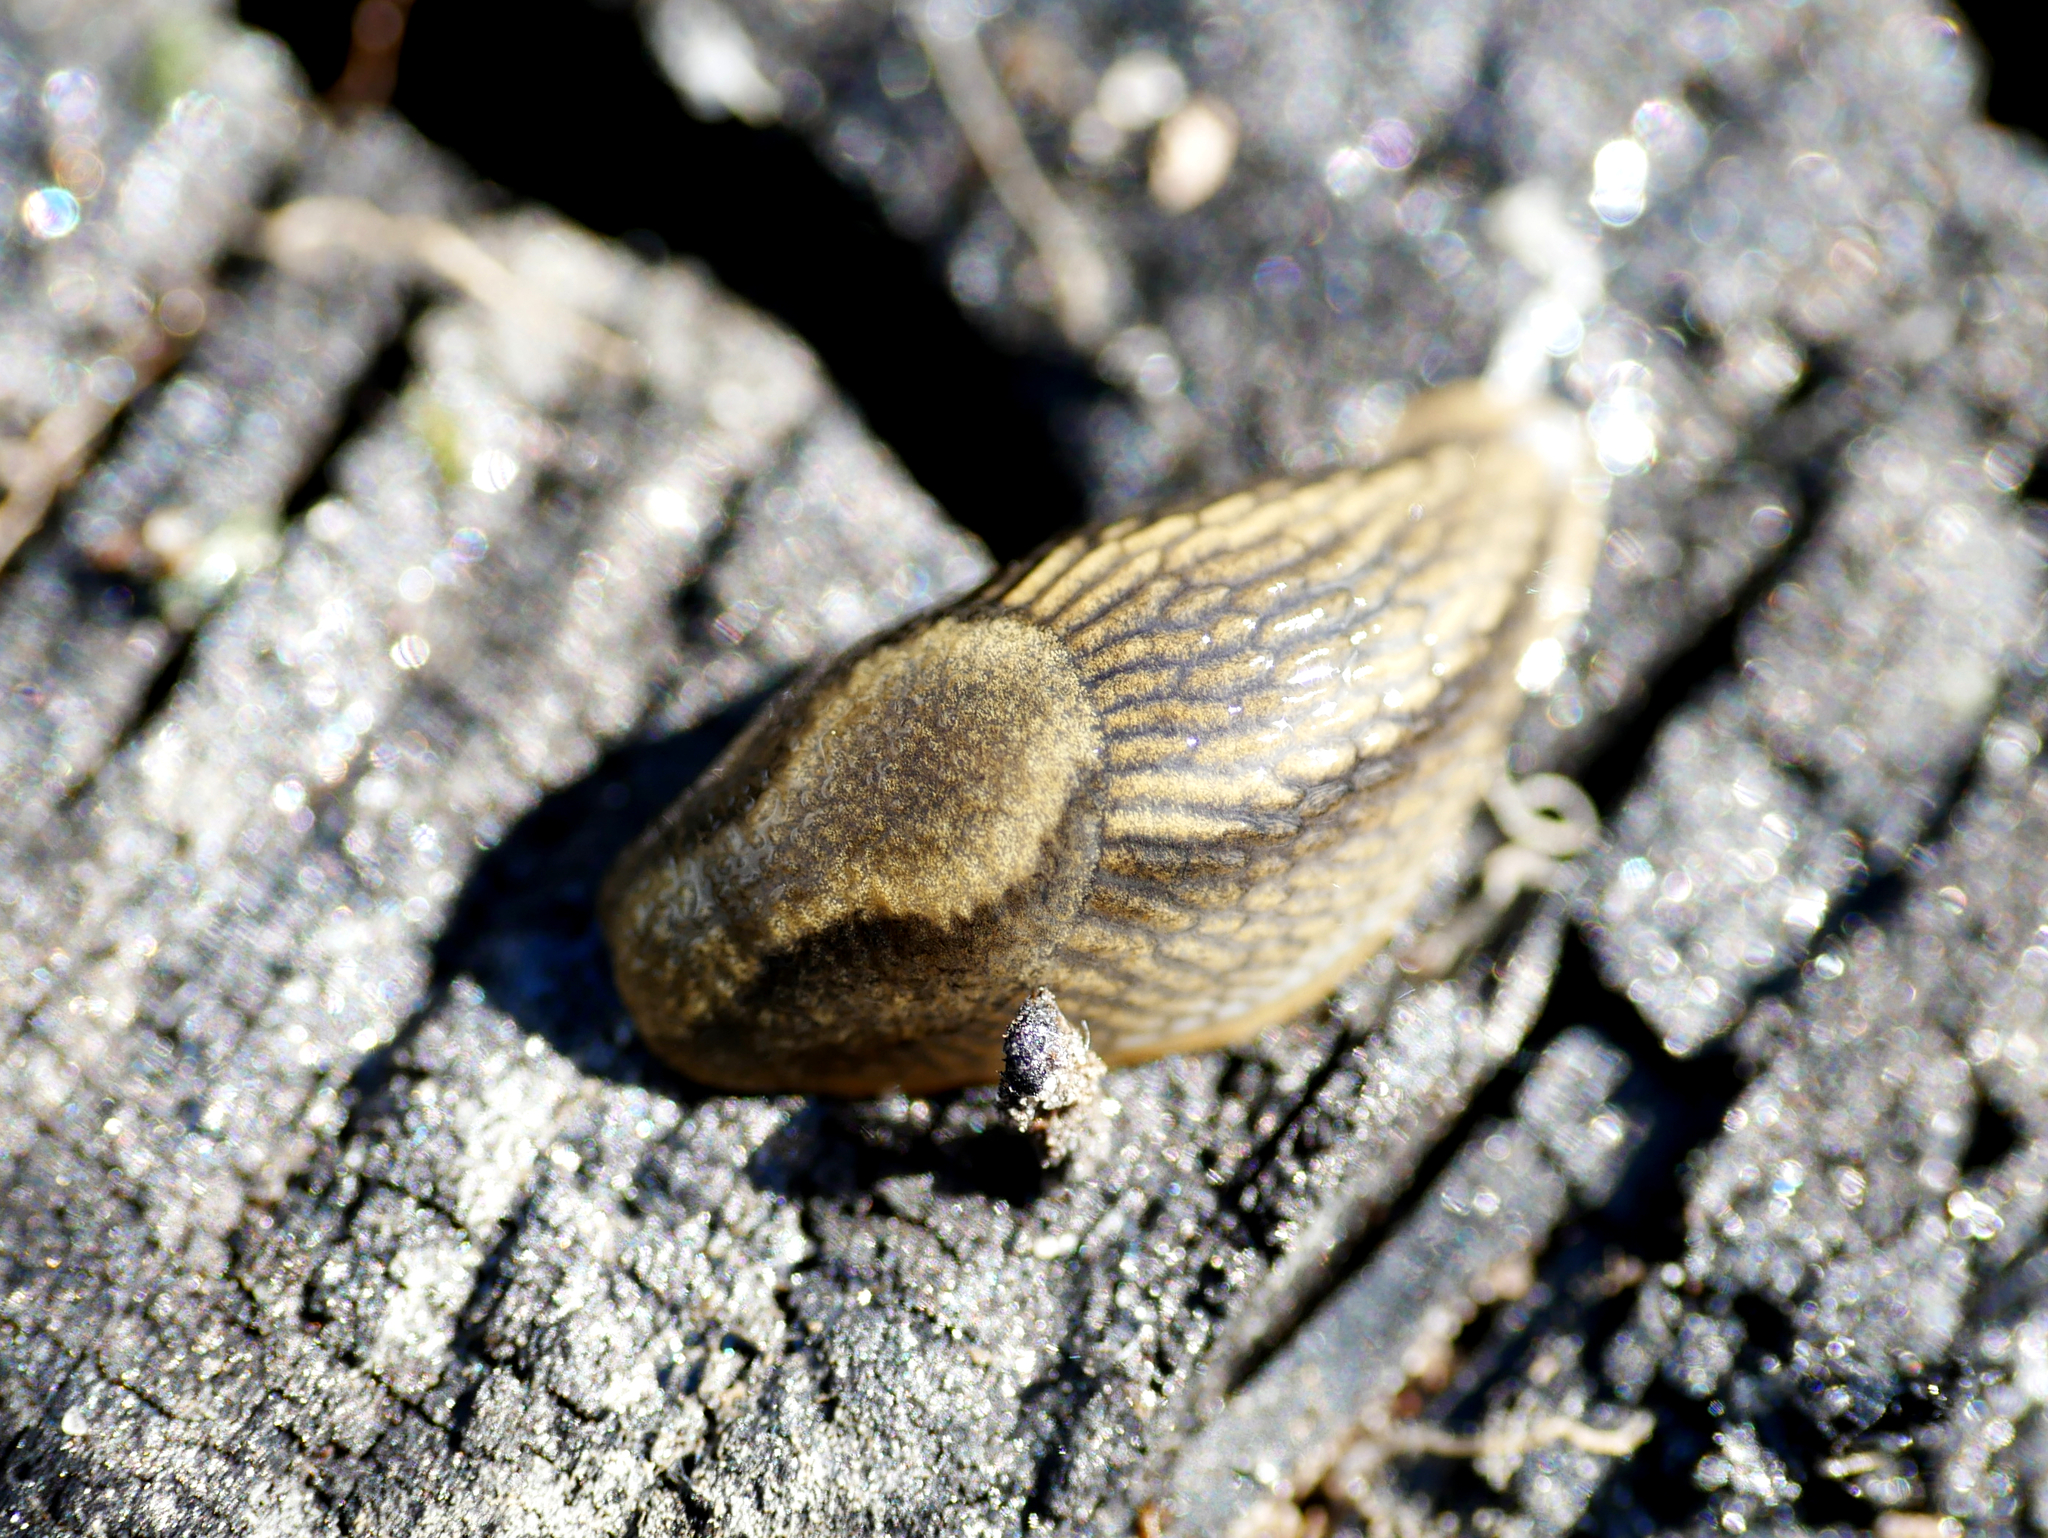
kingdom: Animalia
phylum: Mollusca
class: Gastropoda
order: Stylommatophora
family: Arionidae
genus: Arion
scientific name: Arion vulgaris
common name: Lusitanian slug
